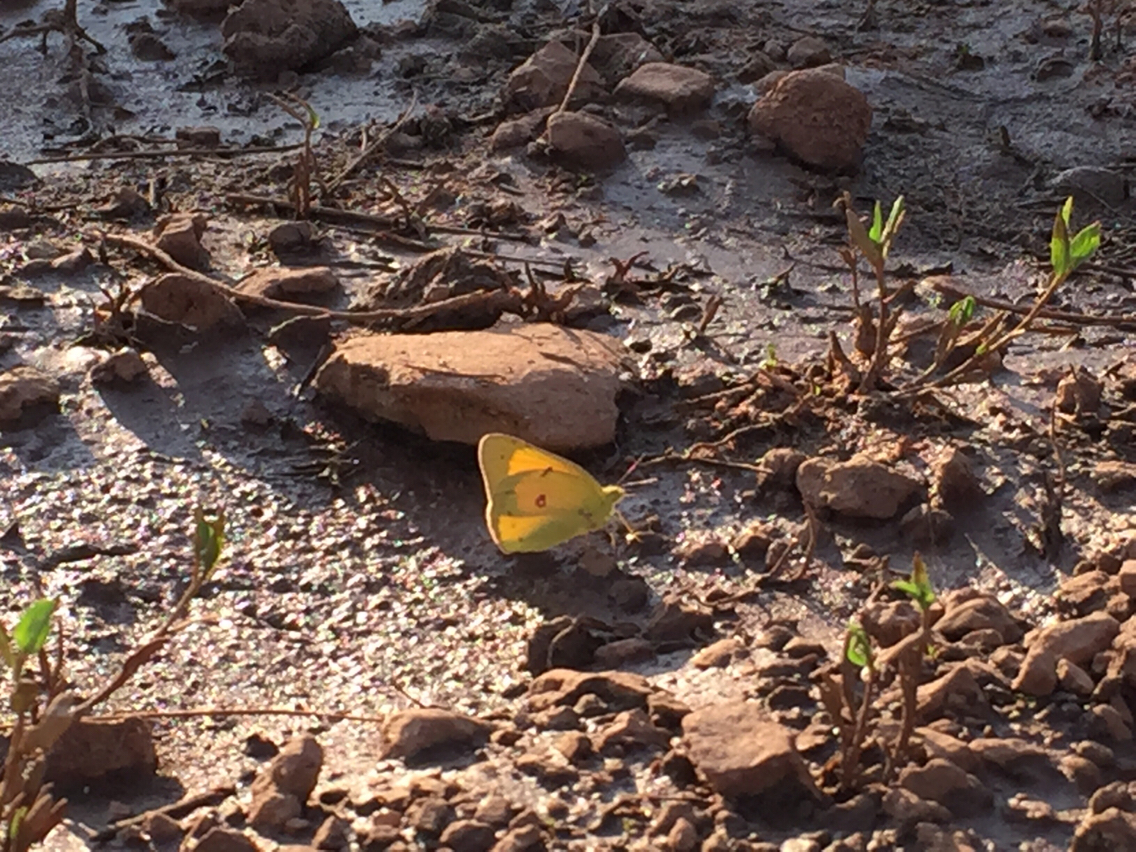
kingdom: Animalia
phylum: Arthropoda
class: Insecta
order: Lepidoptera
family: Pieridae
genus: Colias
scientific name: Colias eurytheme
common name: Alfalfa butterfly
